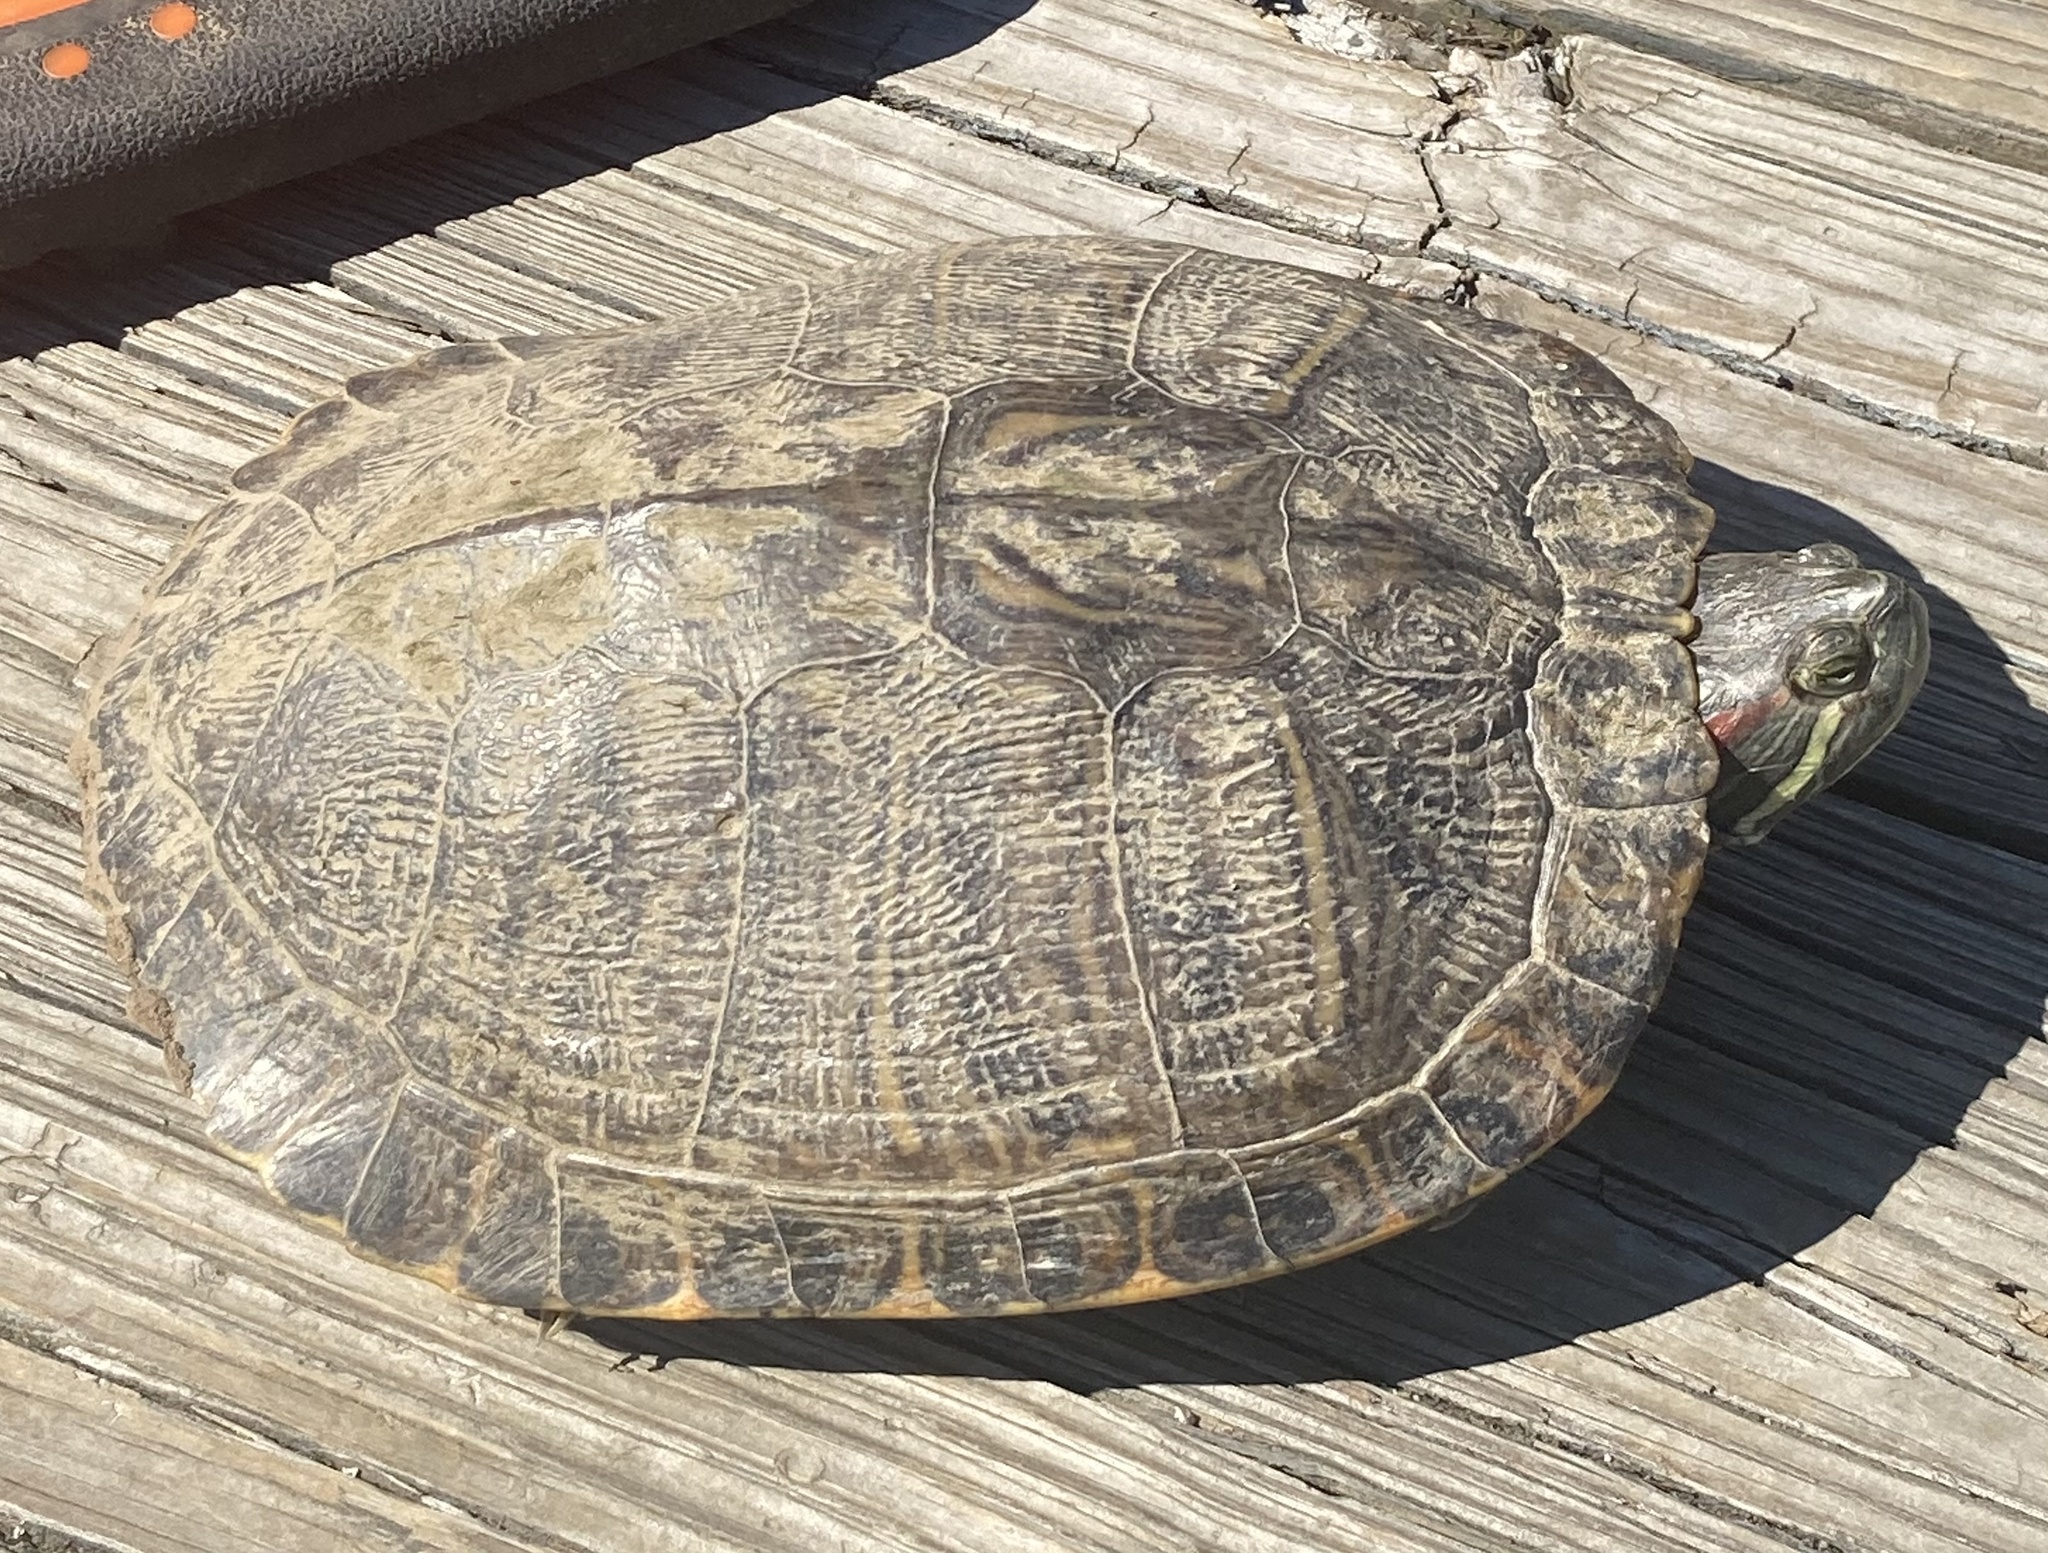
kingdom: Animalia
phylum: Chordata
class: Testudines
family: Emydidae
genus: Trachemys
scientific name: Trachemys scripta
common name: Slider
